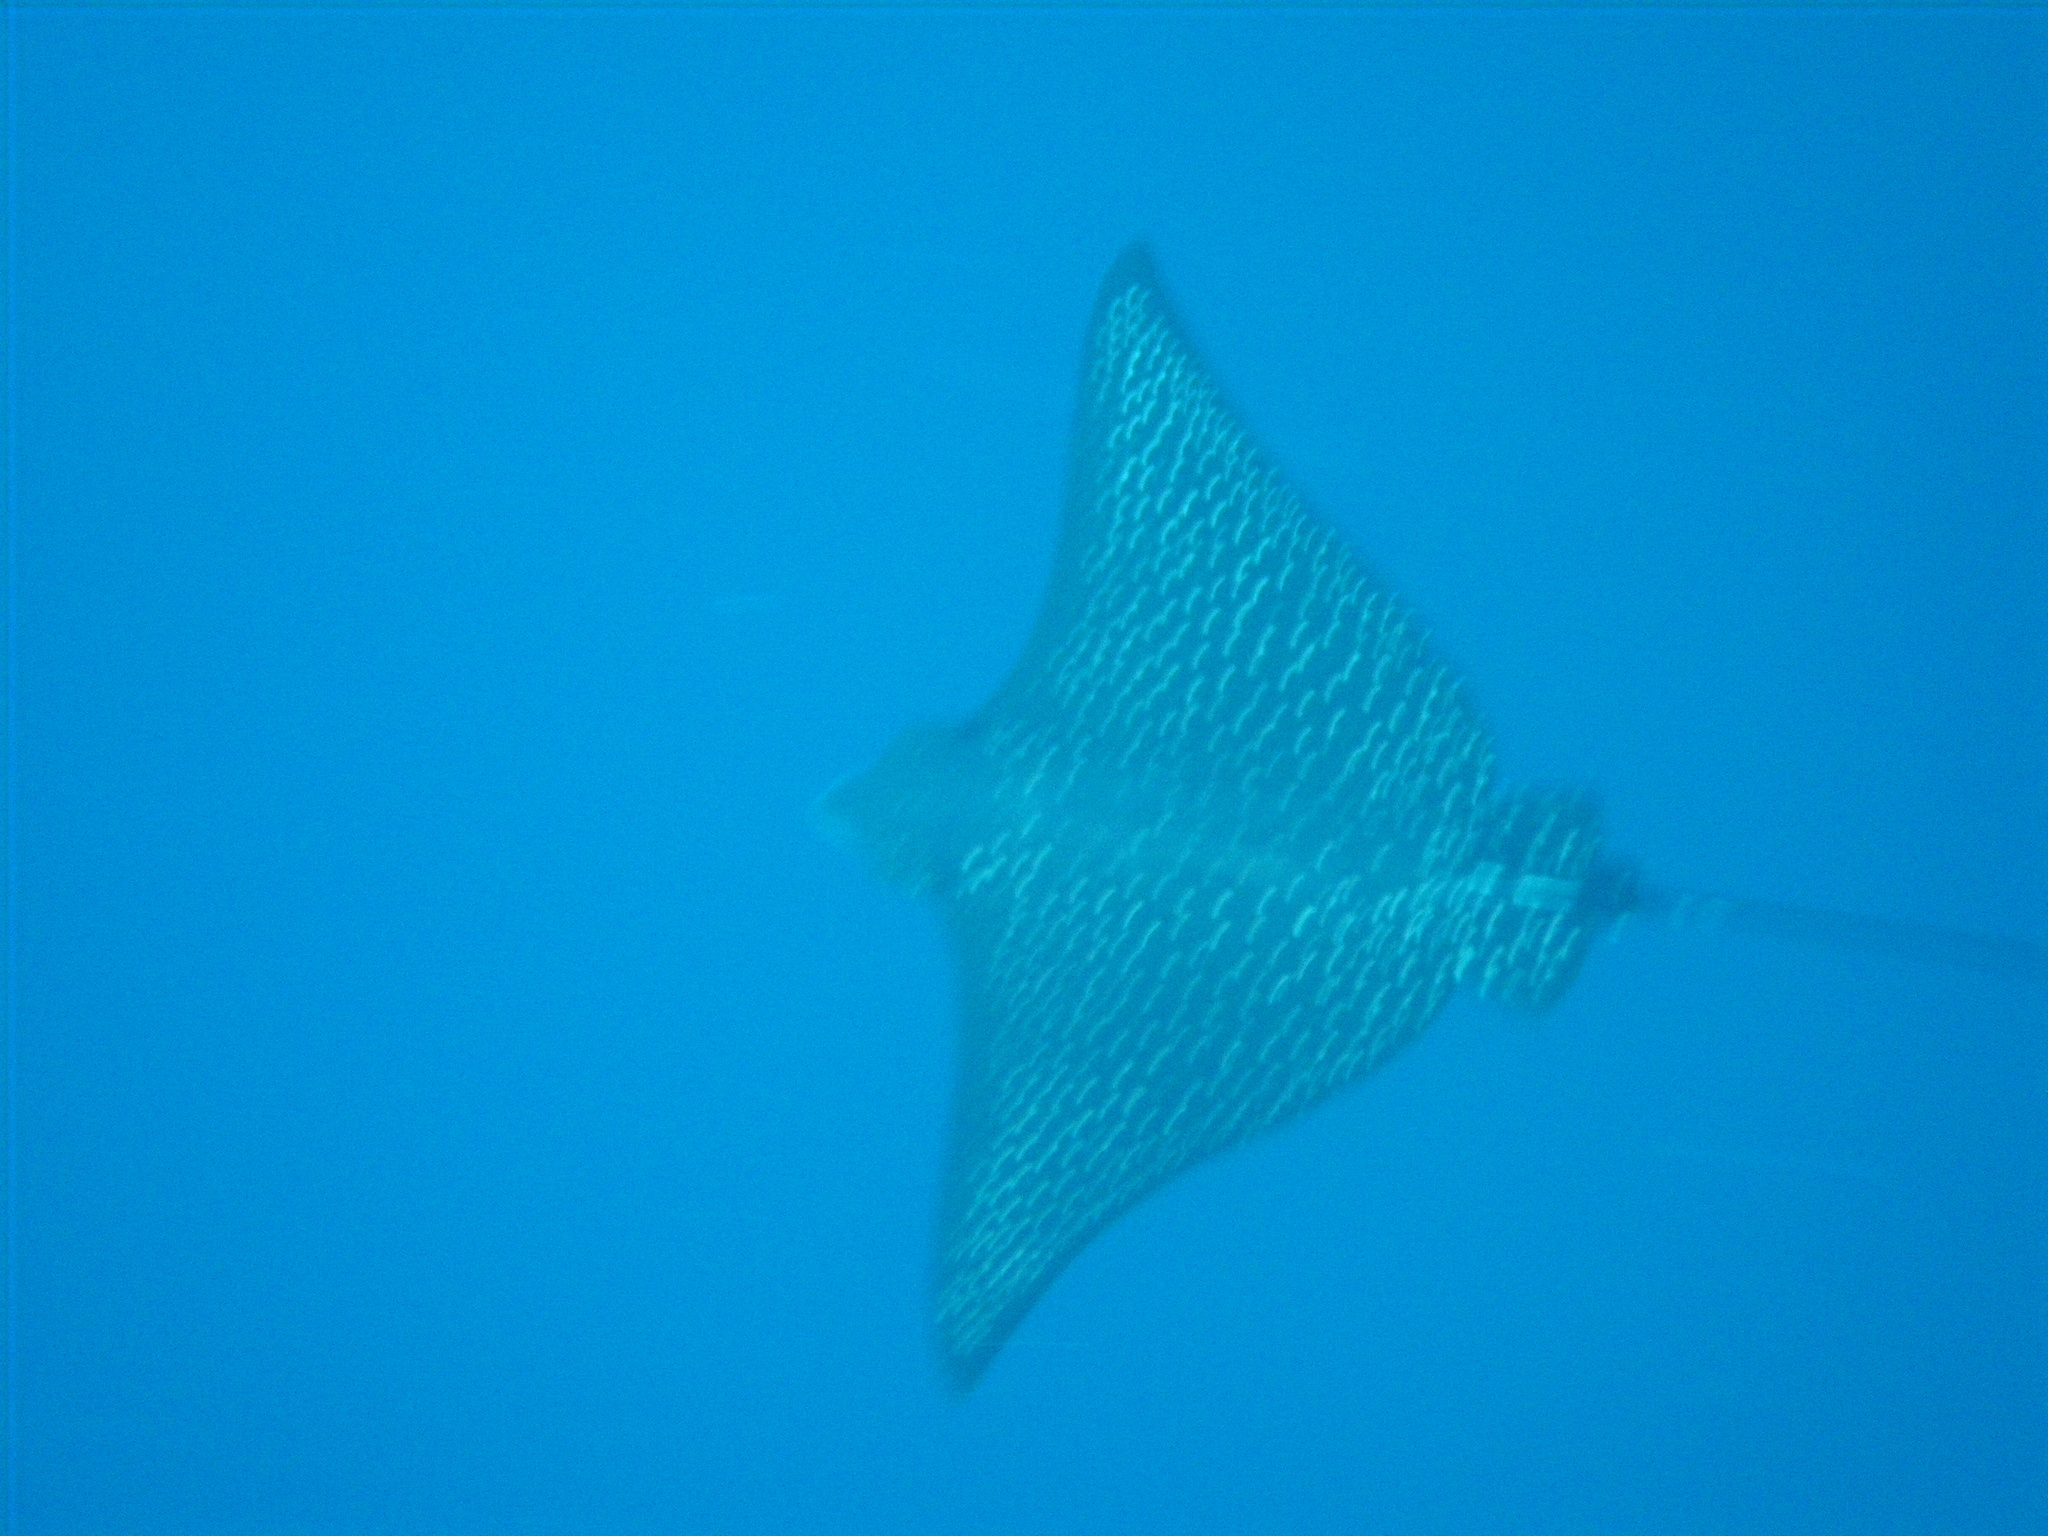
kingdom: Animalia
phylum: Chordata
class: Elasmobranchii
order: Myliobatiformes
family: Myliobatidae
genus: Aetobatus
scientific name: Aetobatus ocellatus
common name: Ocellated eagle ray
